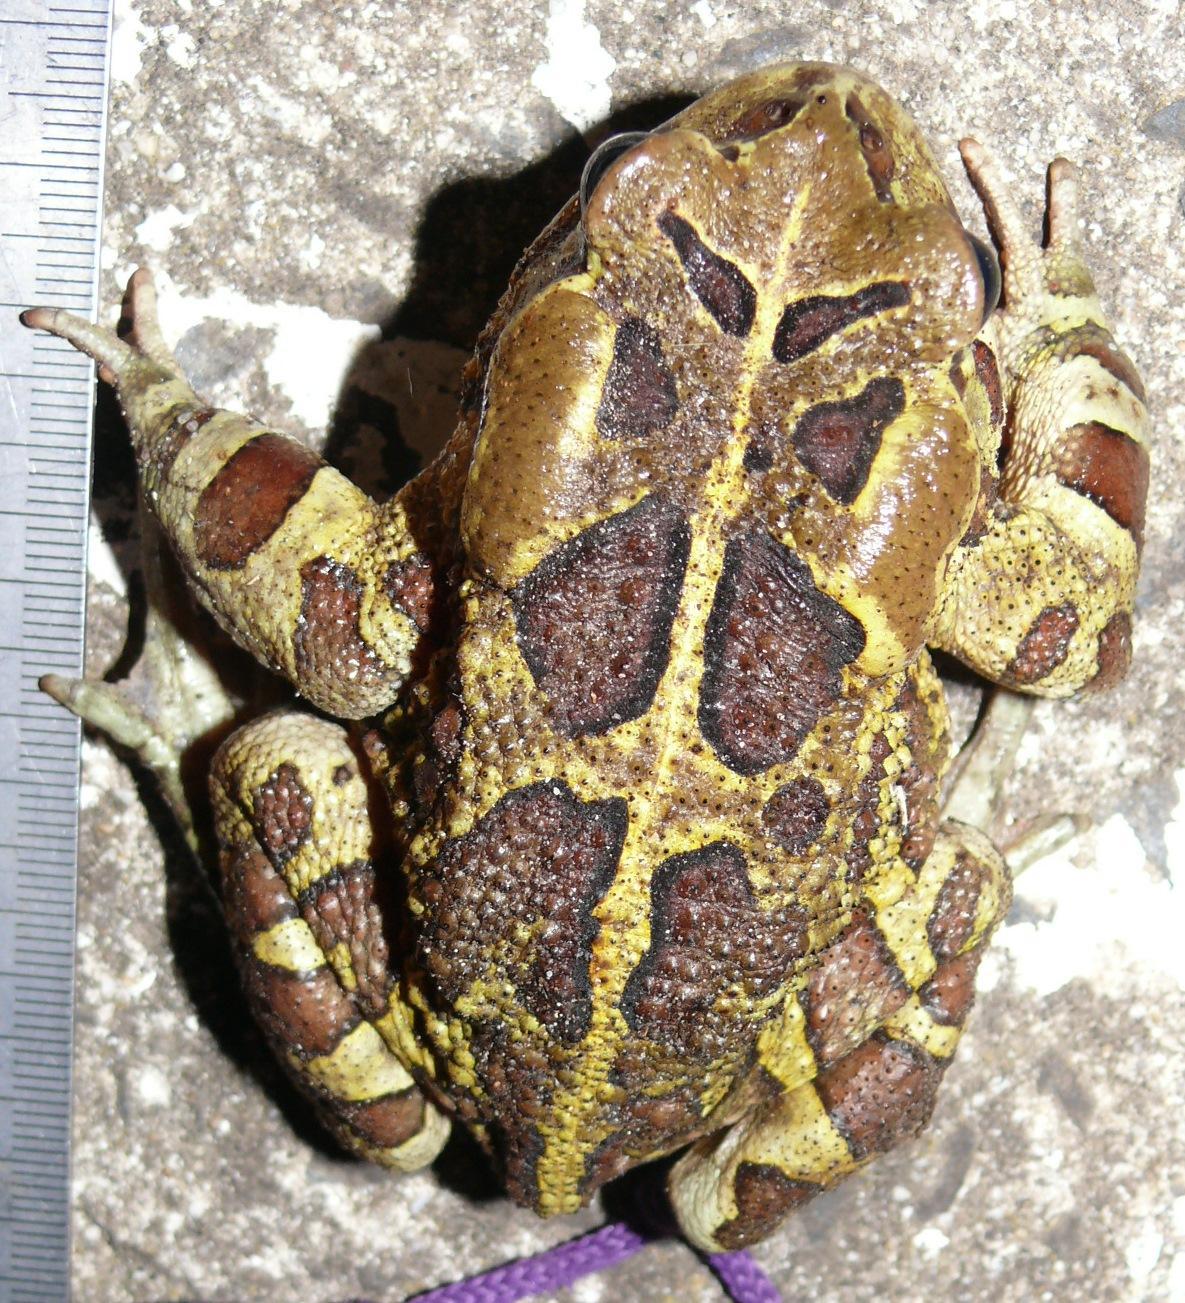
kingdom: Animalia
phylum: Chordata
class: Amphibia
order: Anura
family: Bufonidae
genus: Sclerophrys
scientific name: Sclerophrys pantherina
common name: Panther toad
